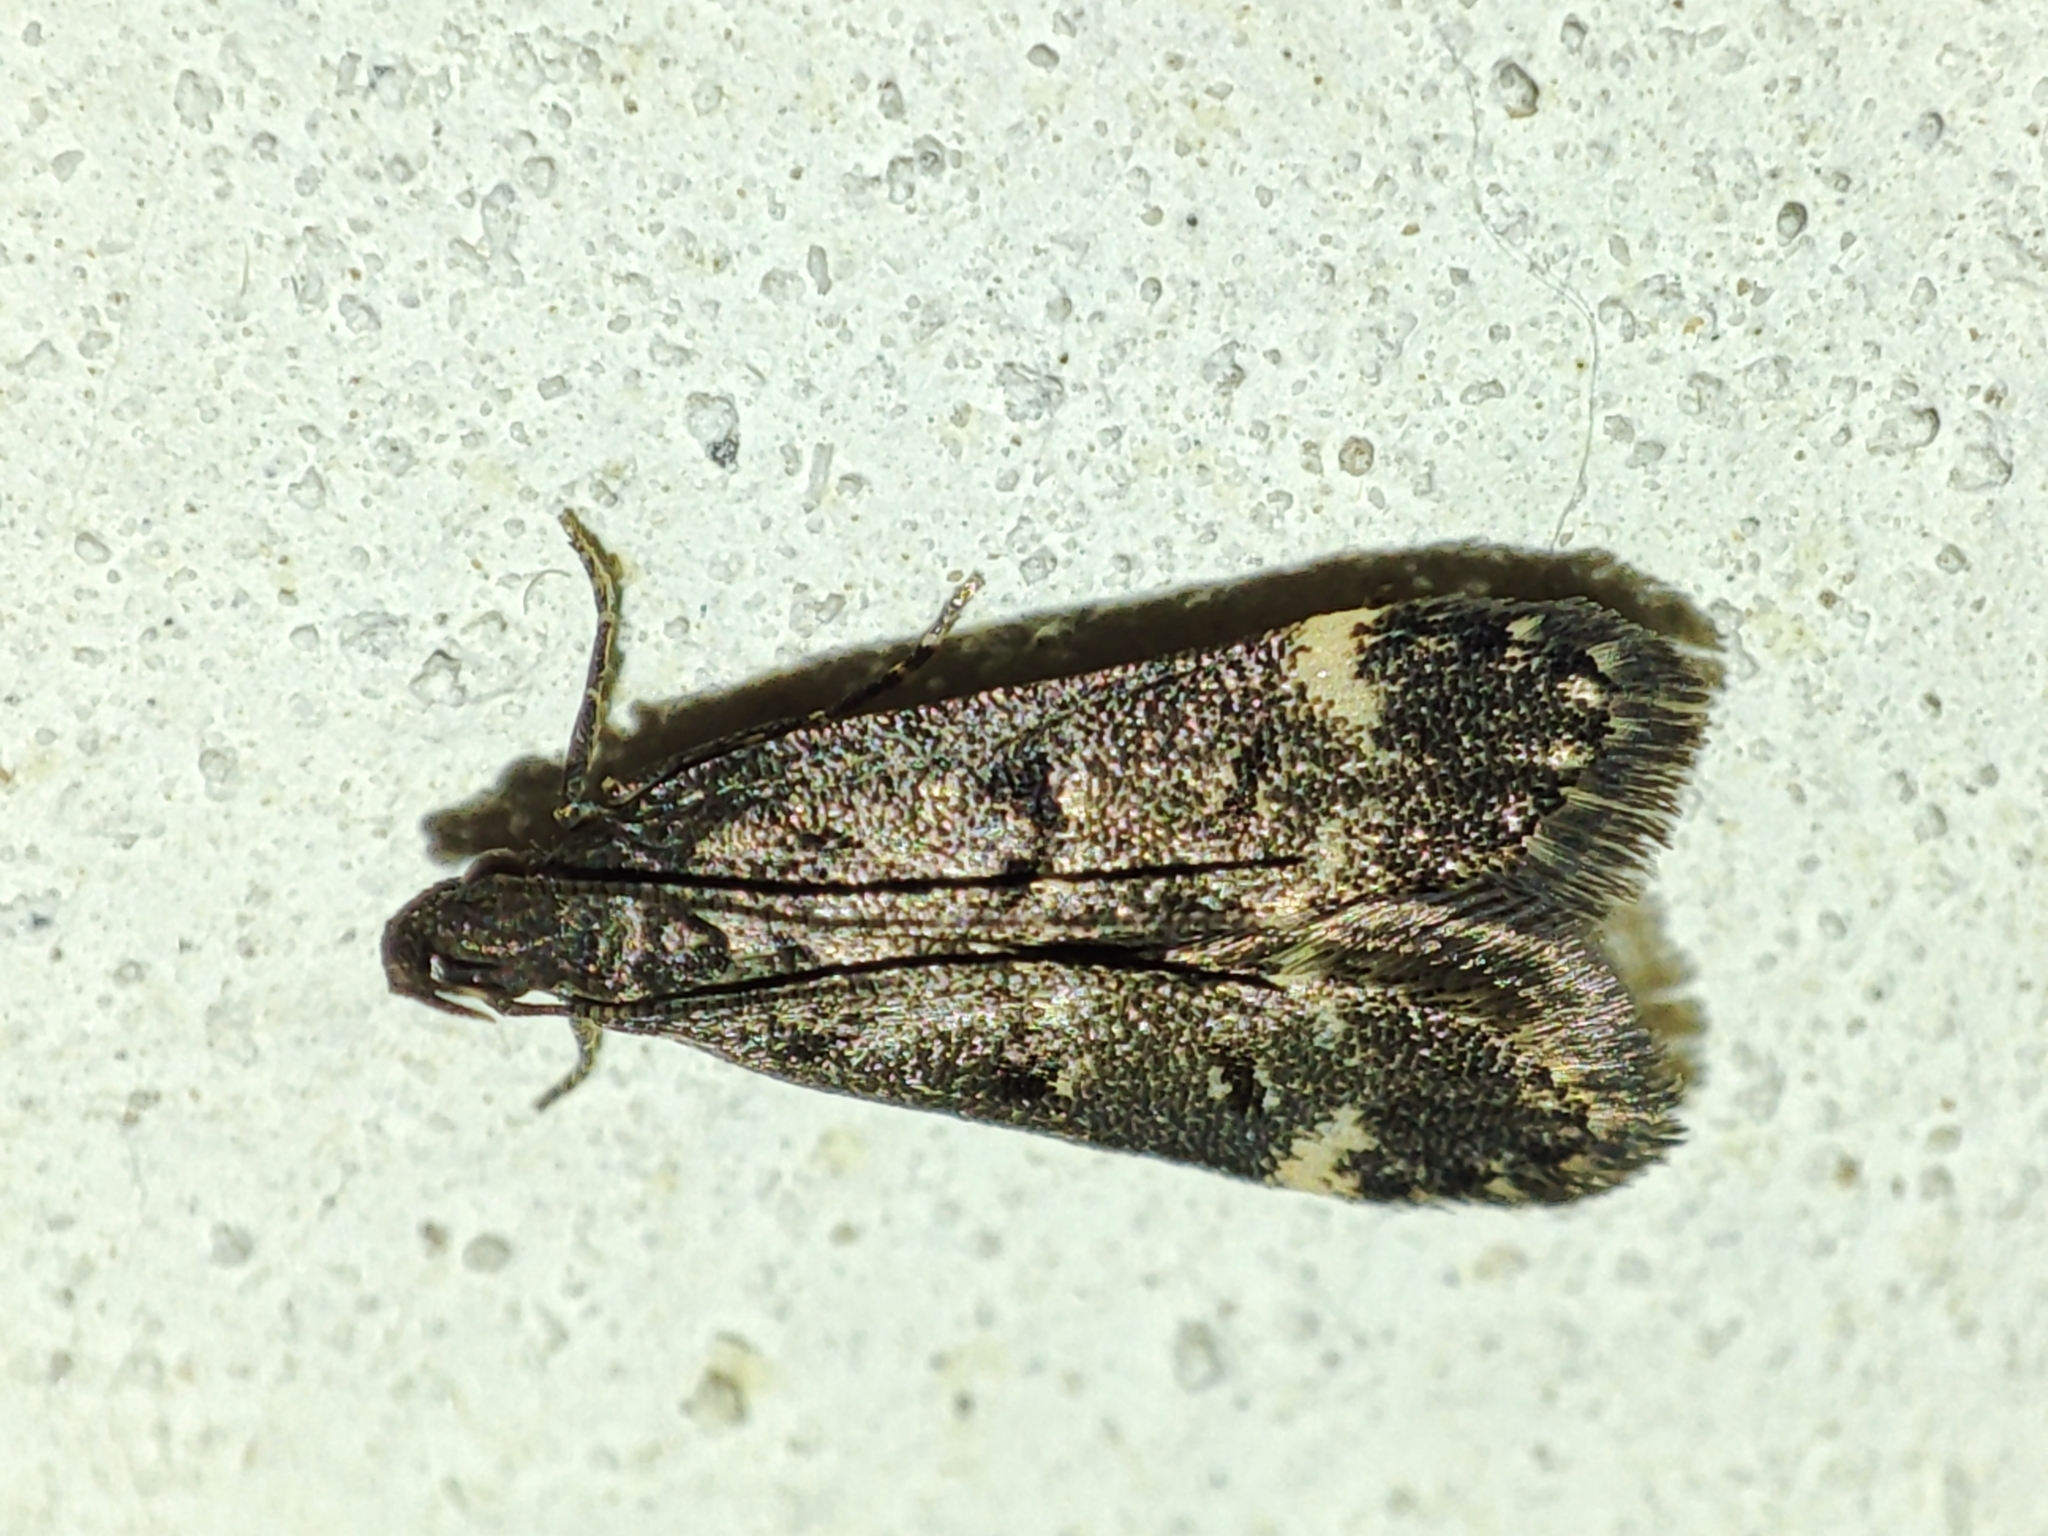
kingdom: Animalia
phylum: Arthropoda
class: Insecta
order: Lepidoptera
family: Gelechiidae
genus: Acanthophila
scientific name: Acanthophila alacella
